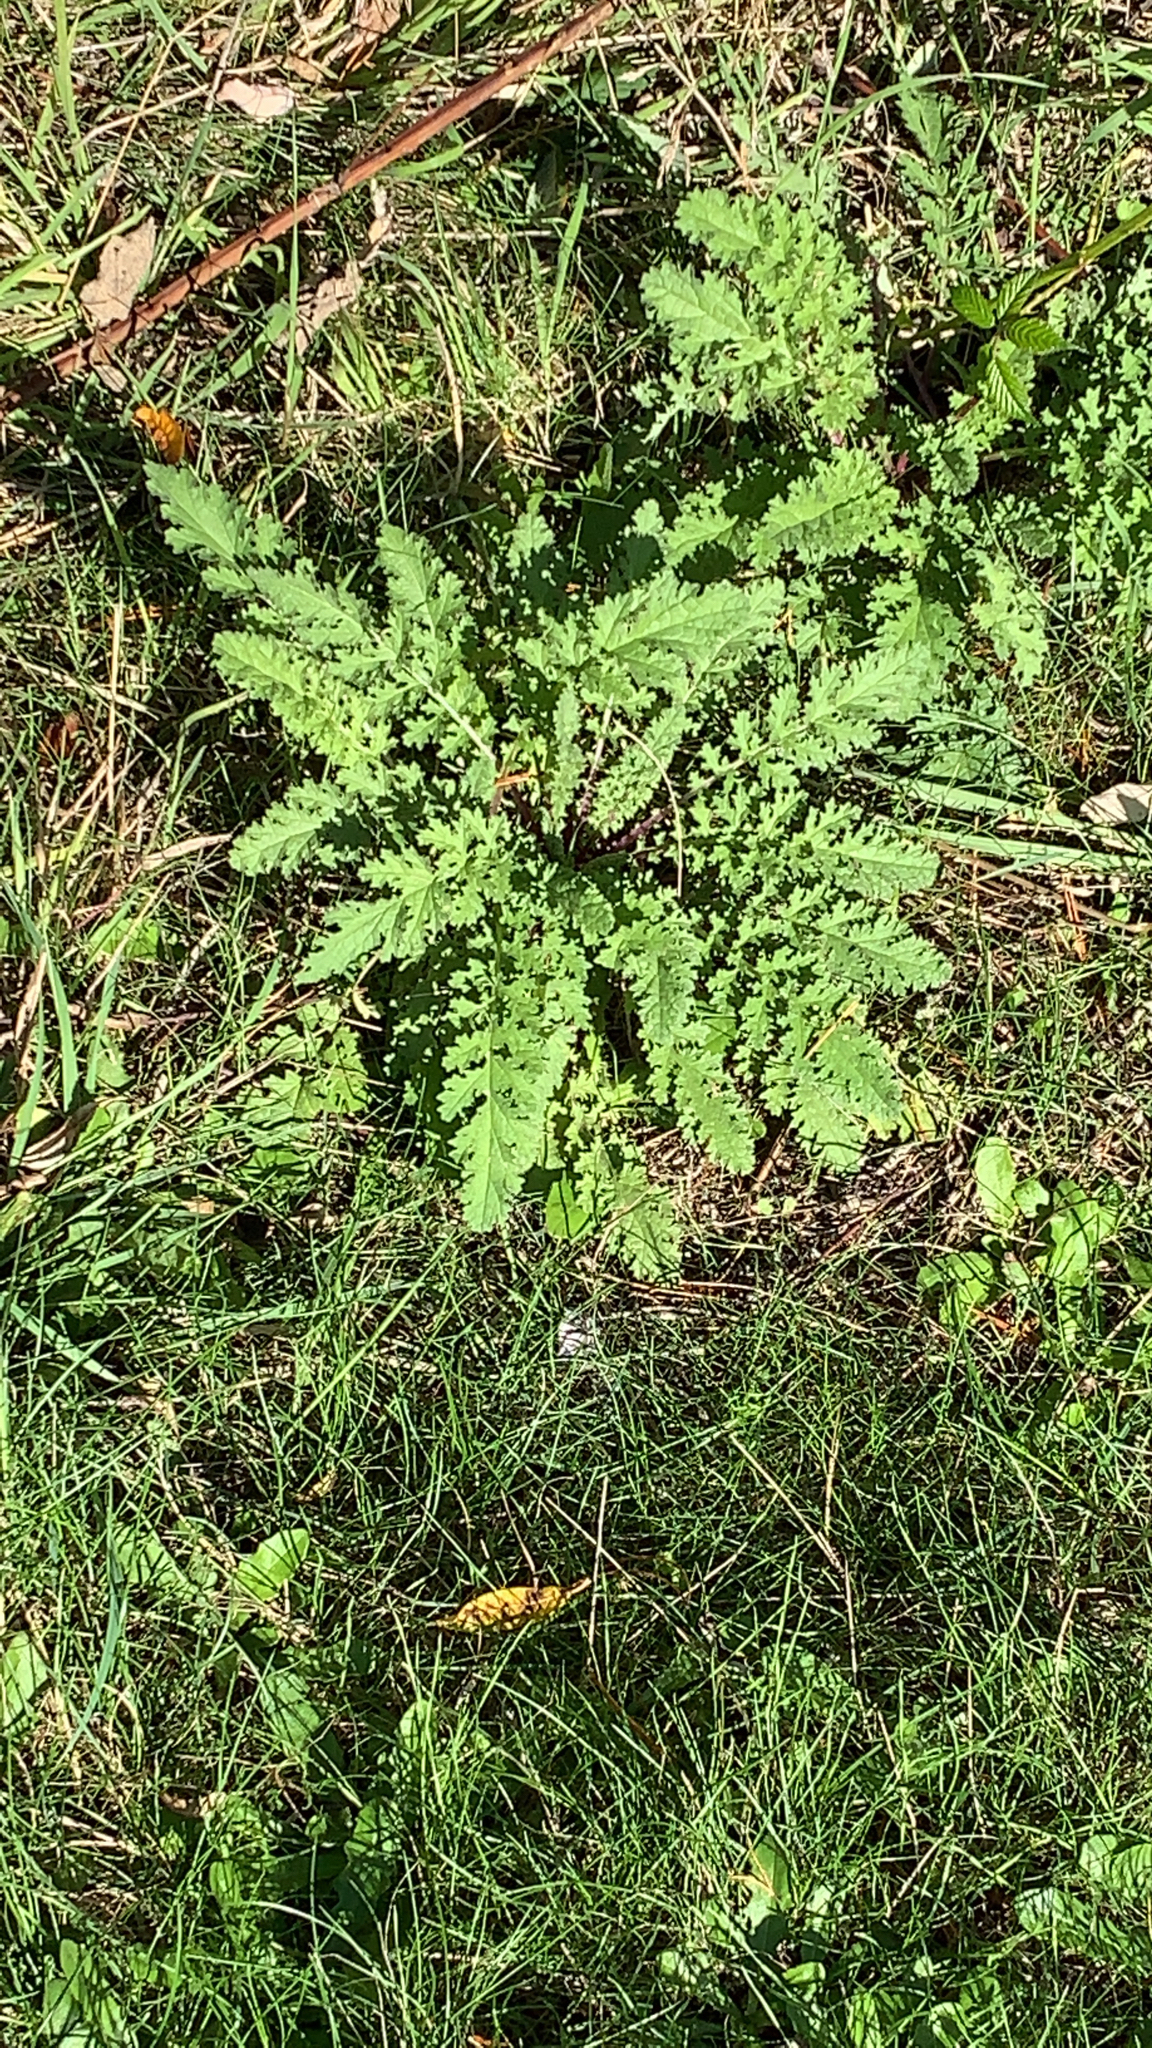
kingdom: Plantae
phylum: Tracheophyta
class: Magnoliopsida
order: Asterales
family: Asteraceae
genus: Jacobaea
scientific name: Jacobaea vulgaris
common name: Stinking willie
